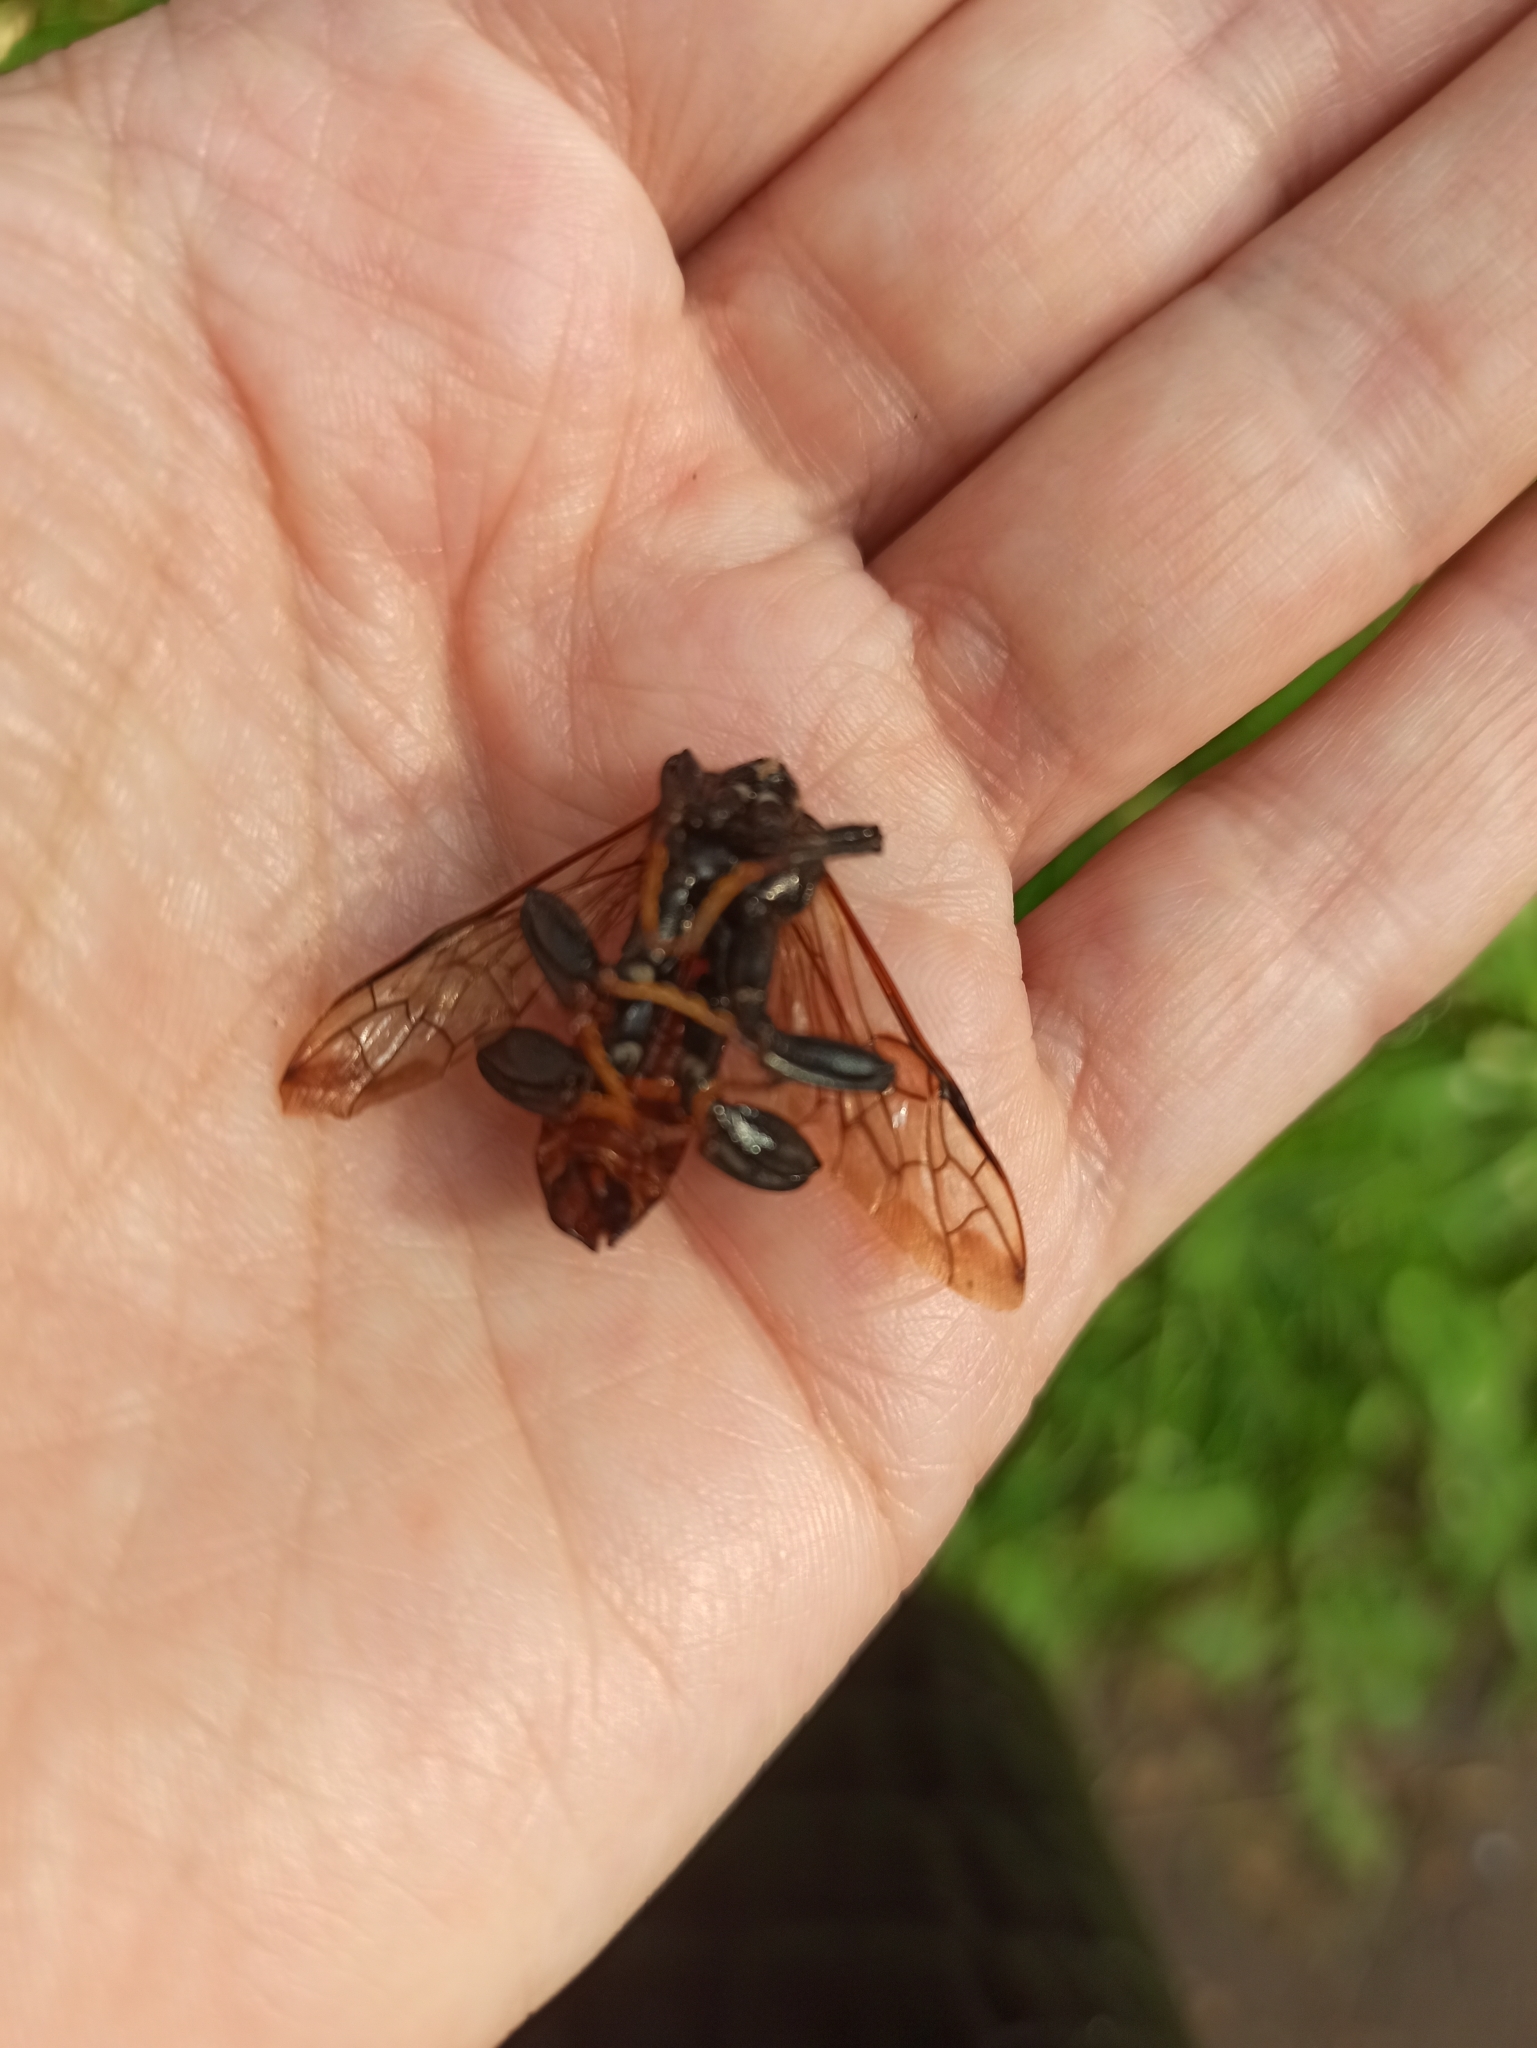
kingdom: Animalia
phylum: Arthropoda
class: Insecta
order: Hymenoptera
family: Cimbicidae
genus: Cimbex
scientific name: Cimbex femoratus
